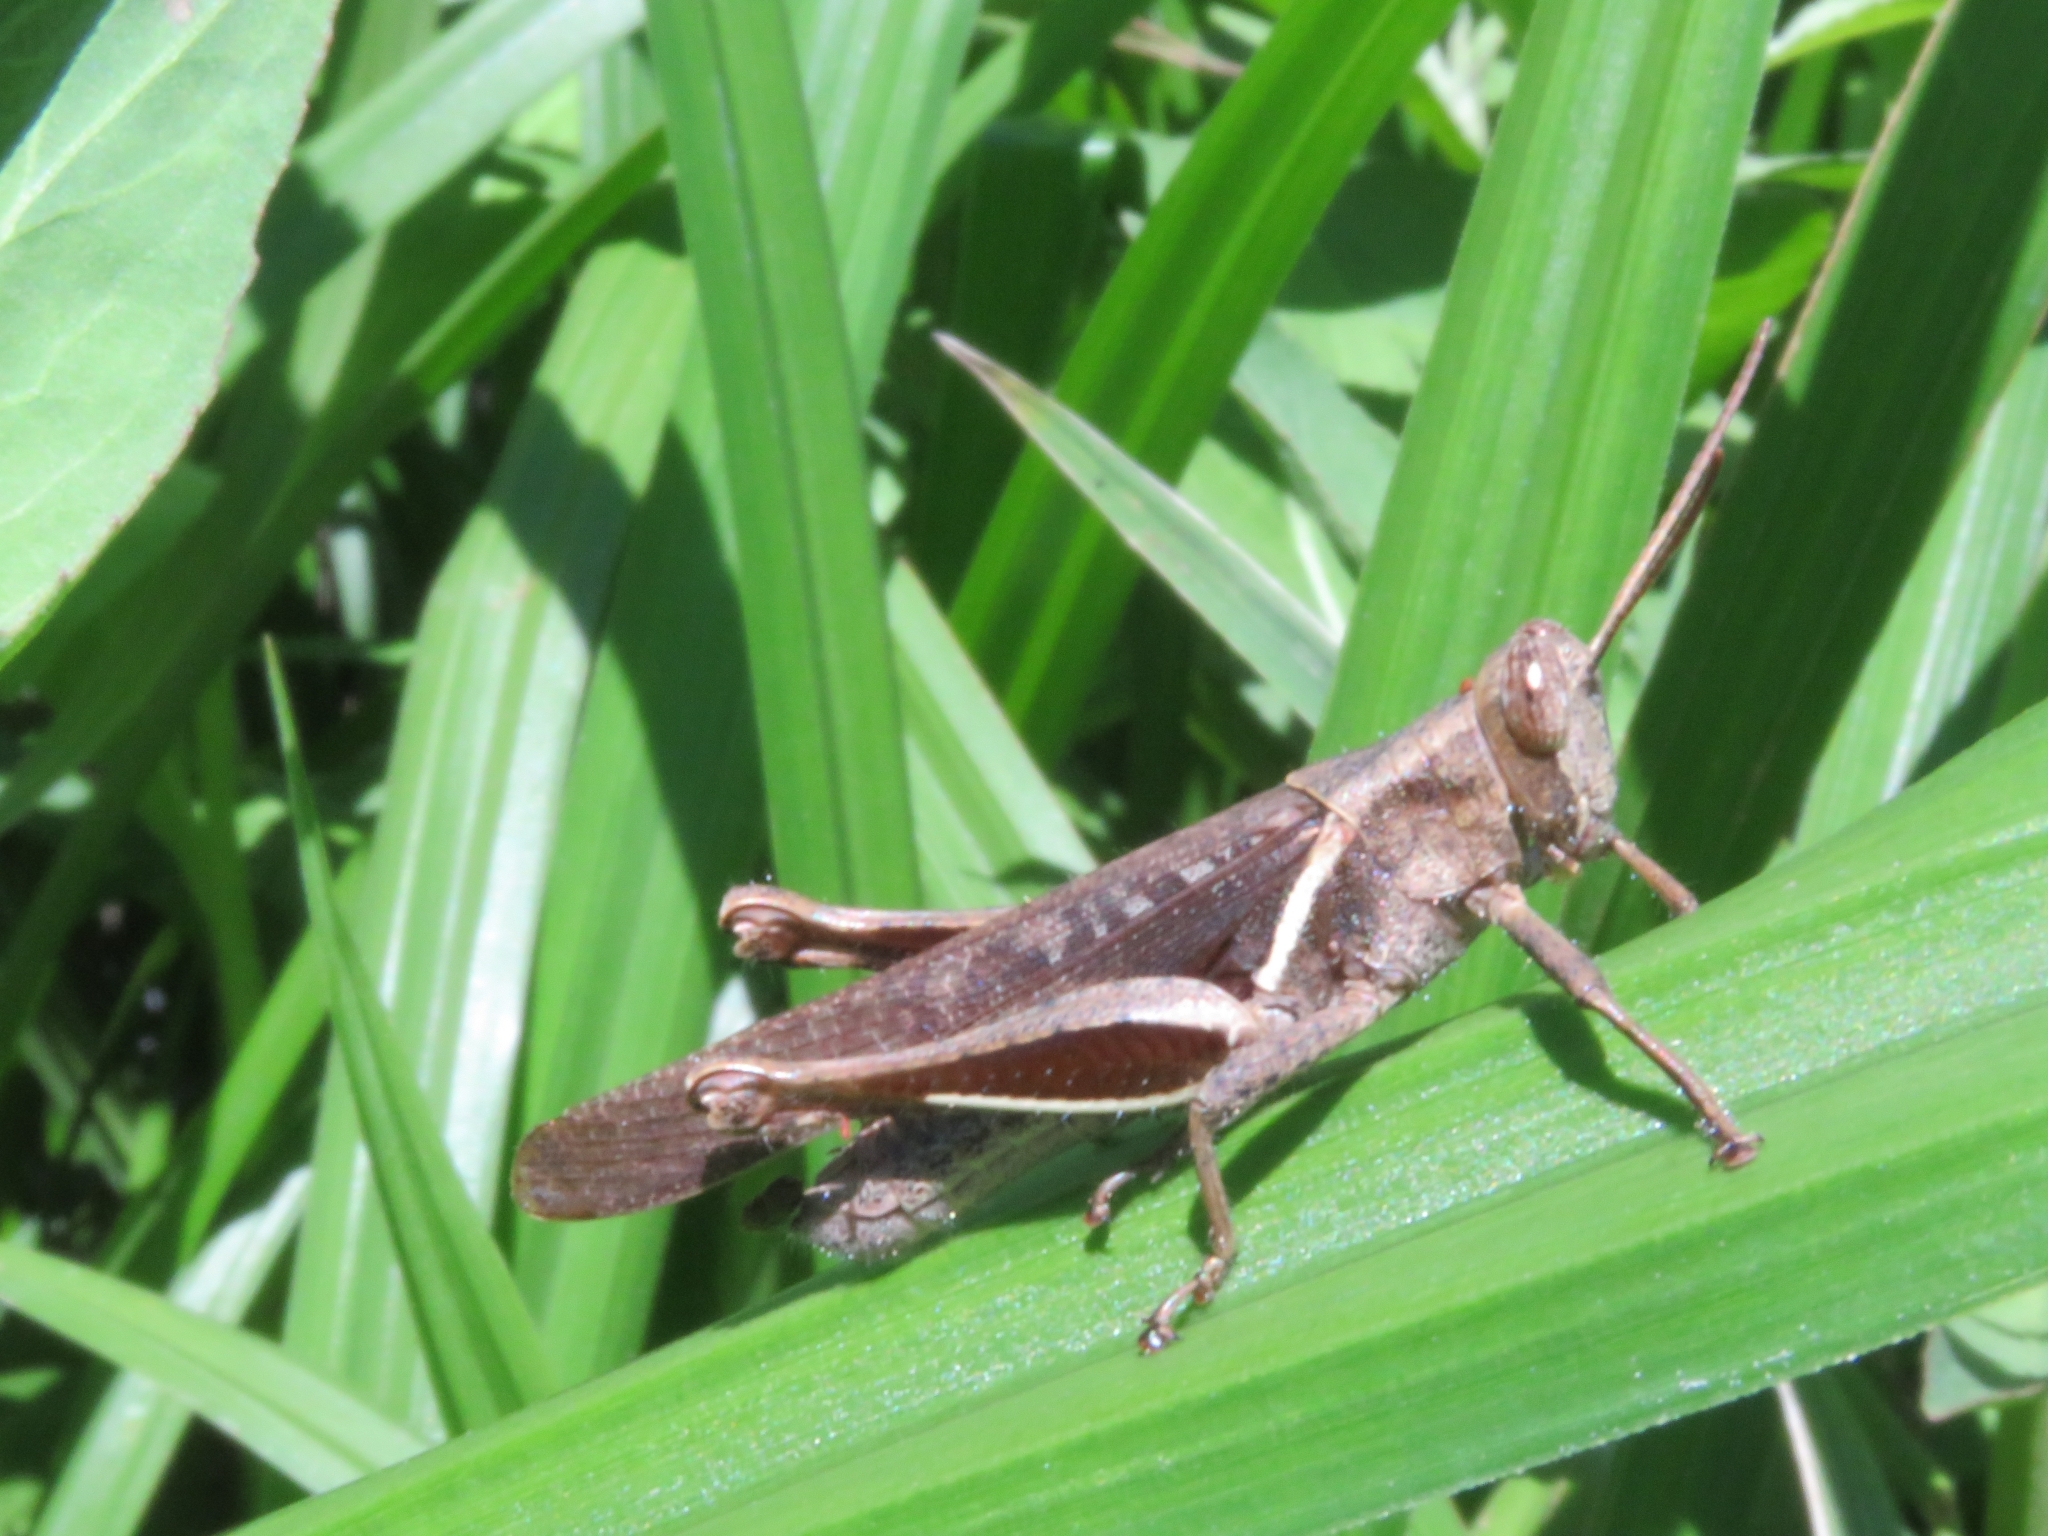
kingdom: Animalia
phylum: Arthropoda
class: Insecta
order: Orthoptera
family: Acrididae
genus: Abracris
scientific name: Abracris flavolineata
